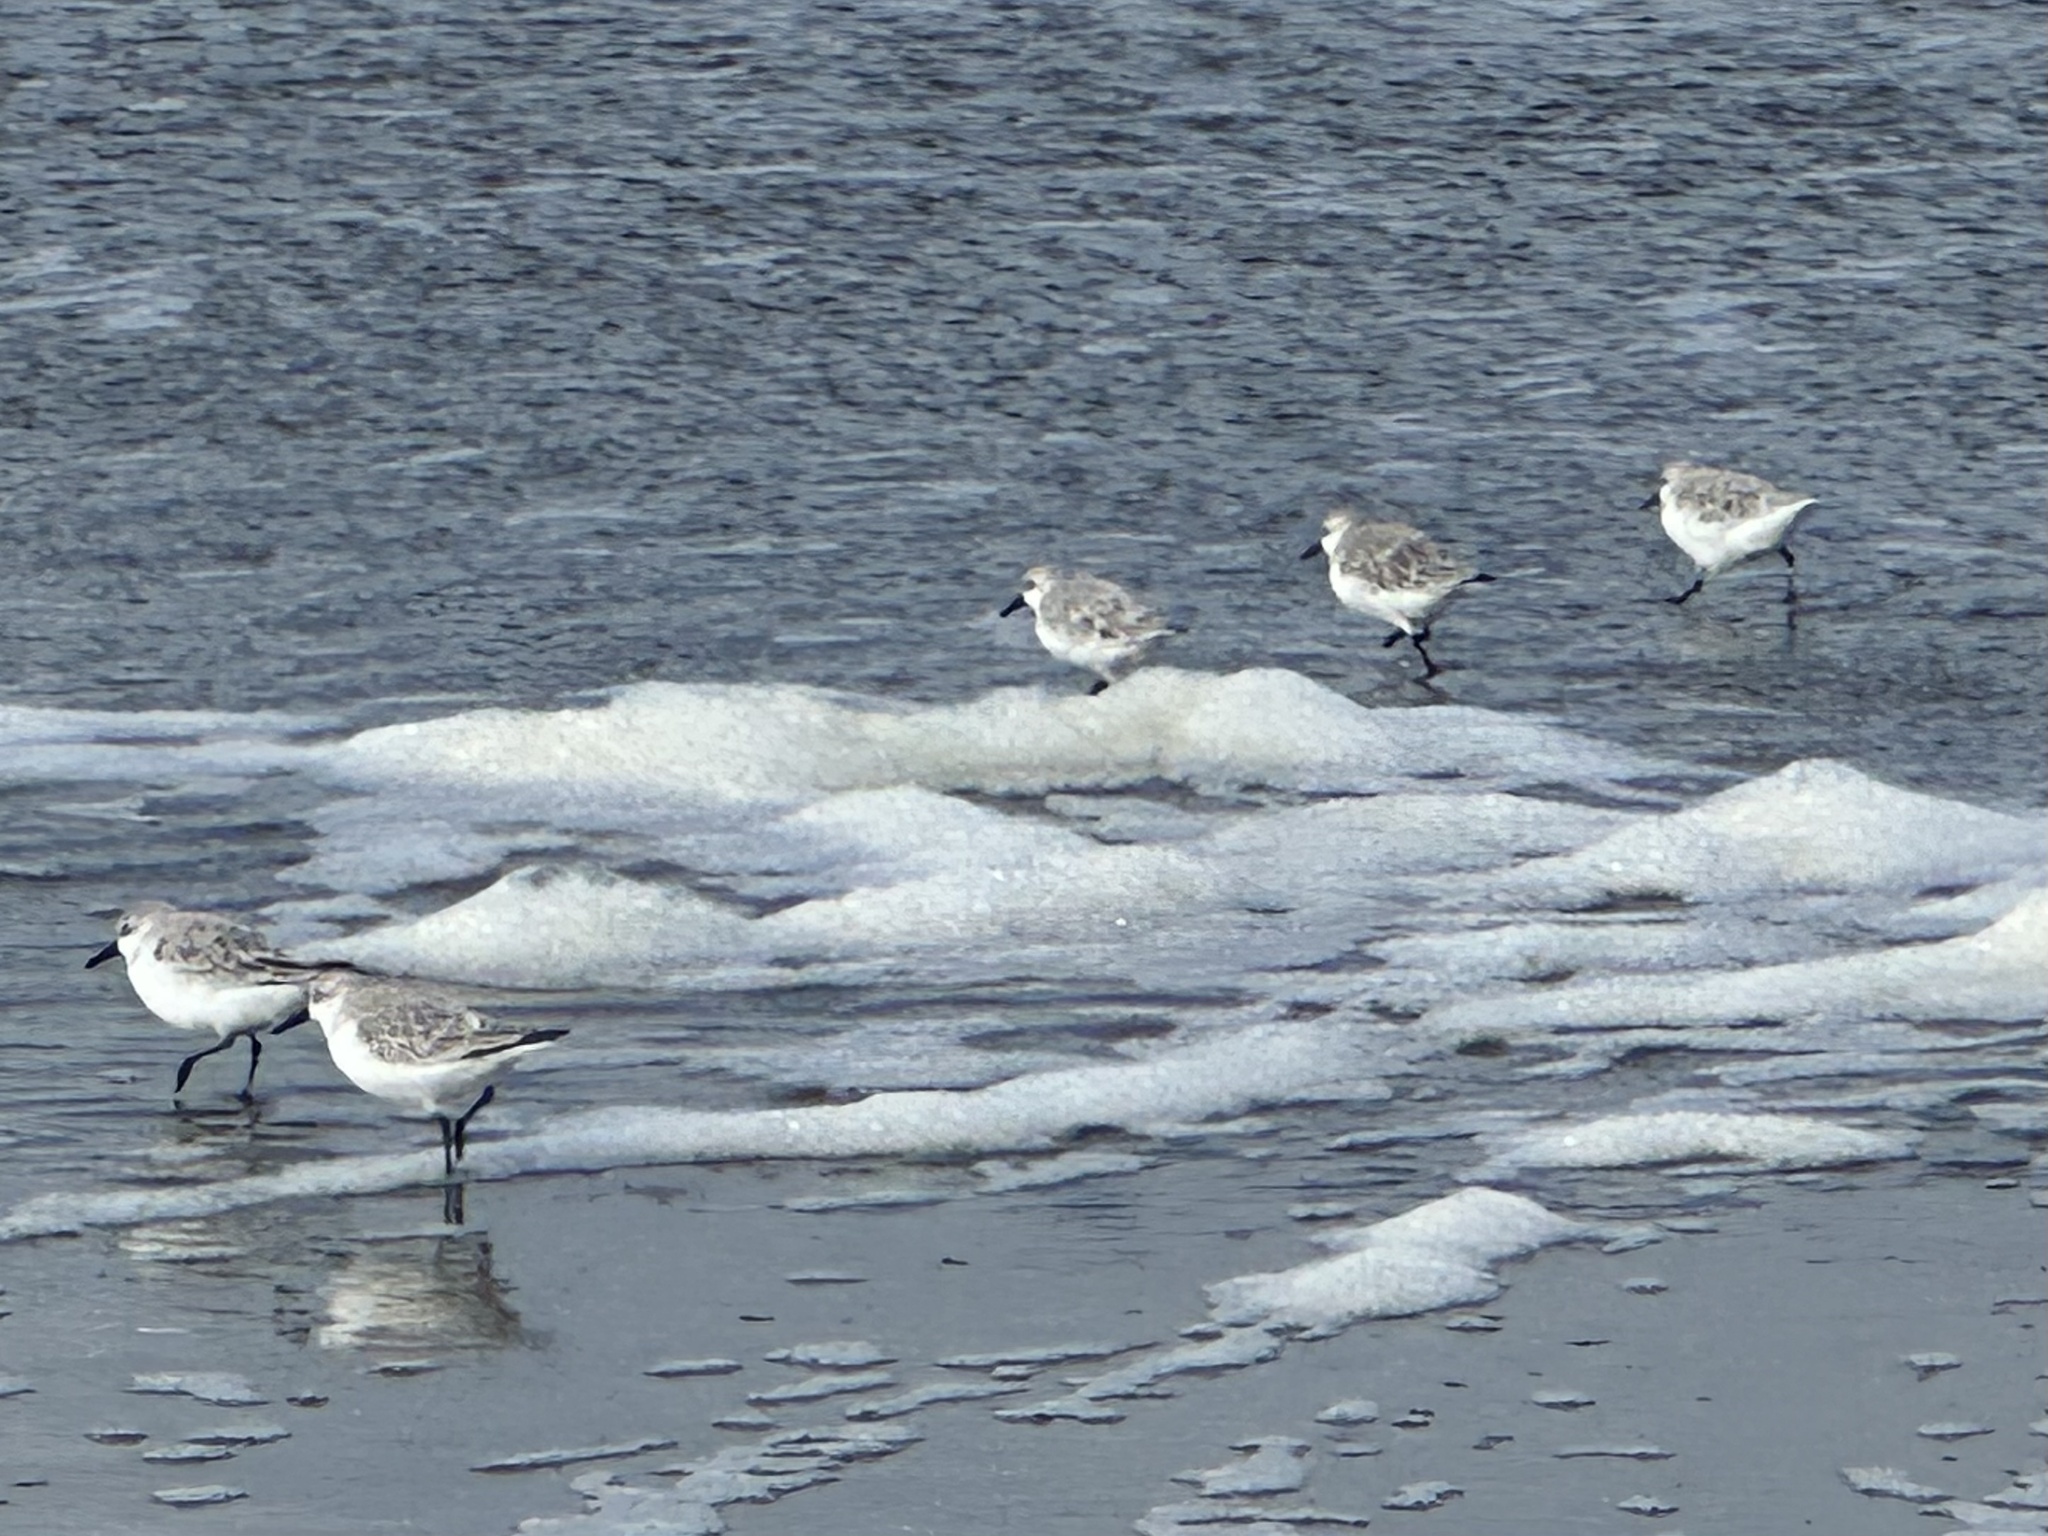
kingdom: Animalia
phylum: Chordata
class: Aves
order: Charadriiformes
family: Scolopacidae
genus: Calidris
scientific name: Calidris alba
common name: Sanderling
